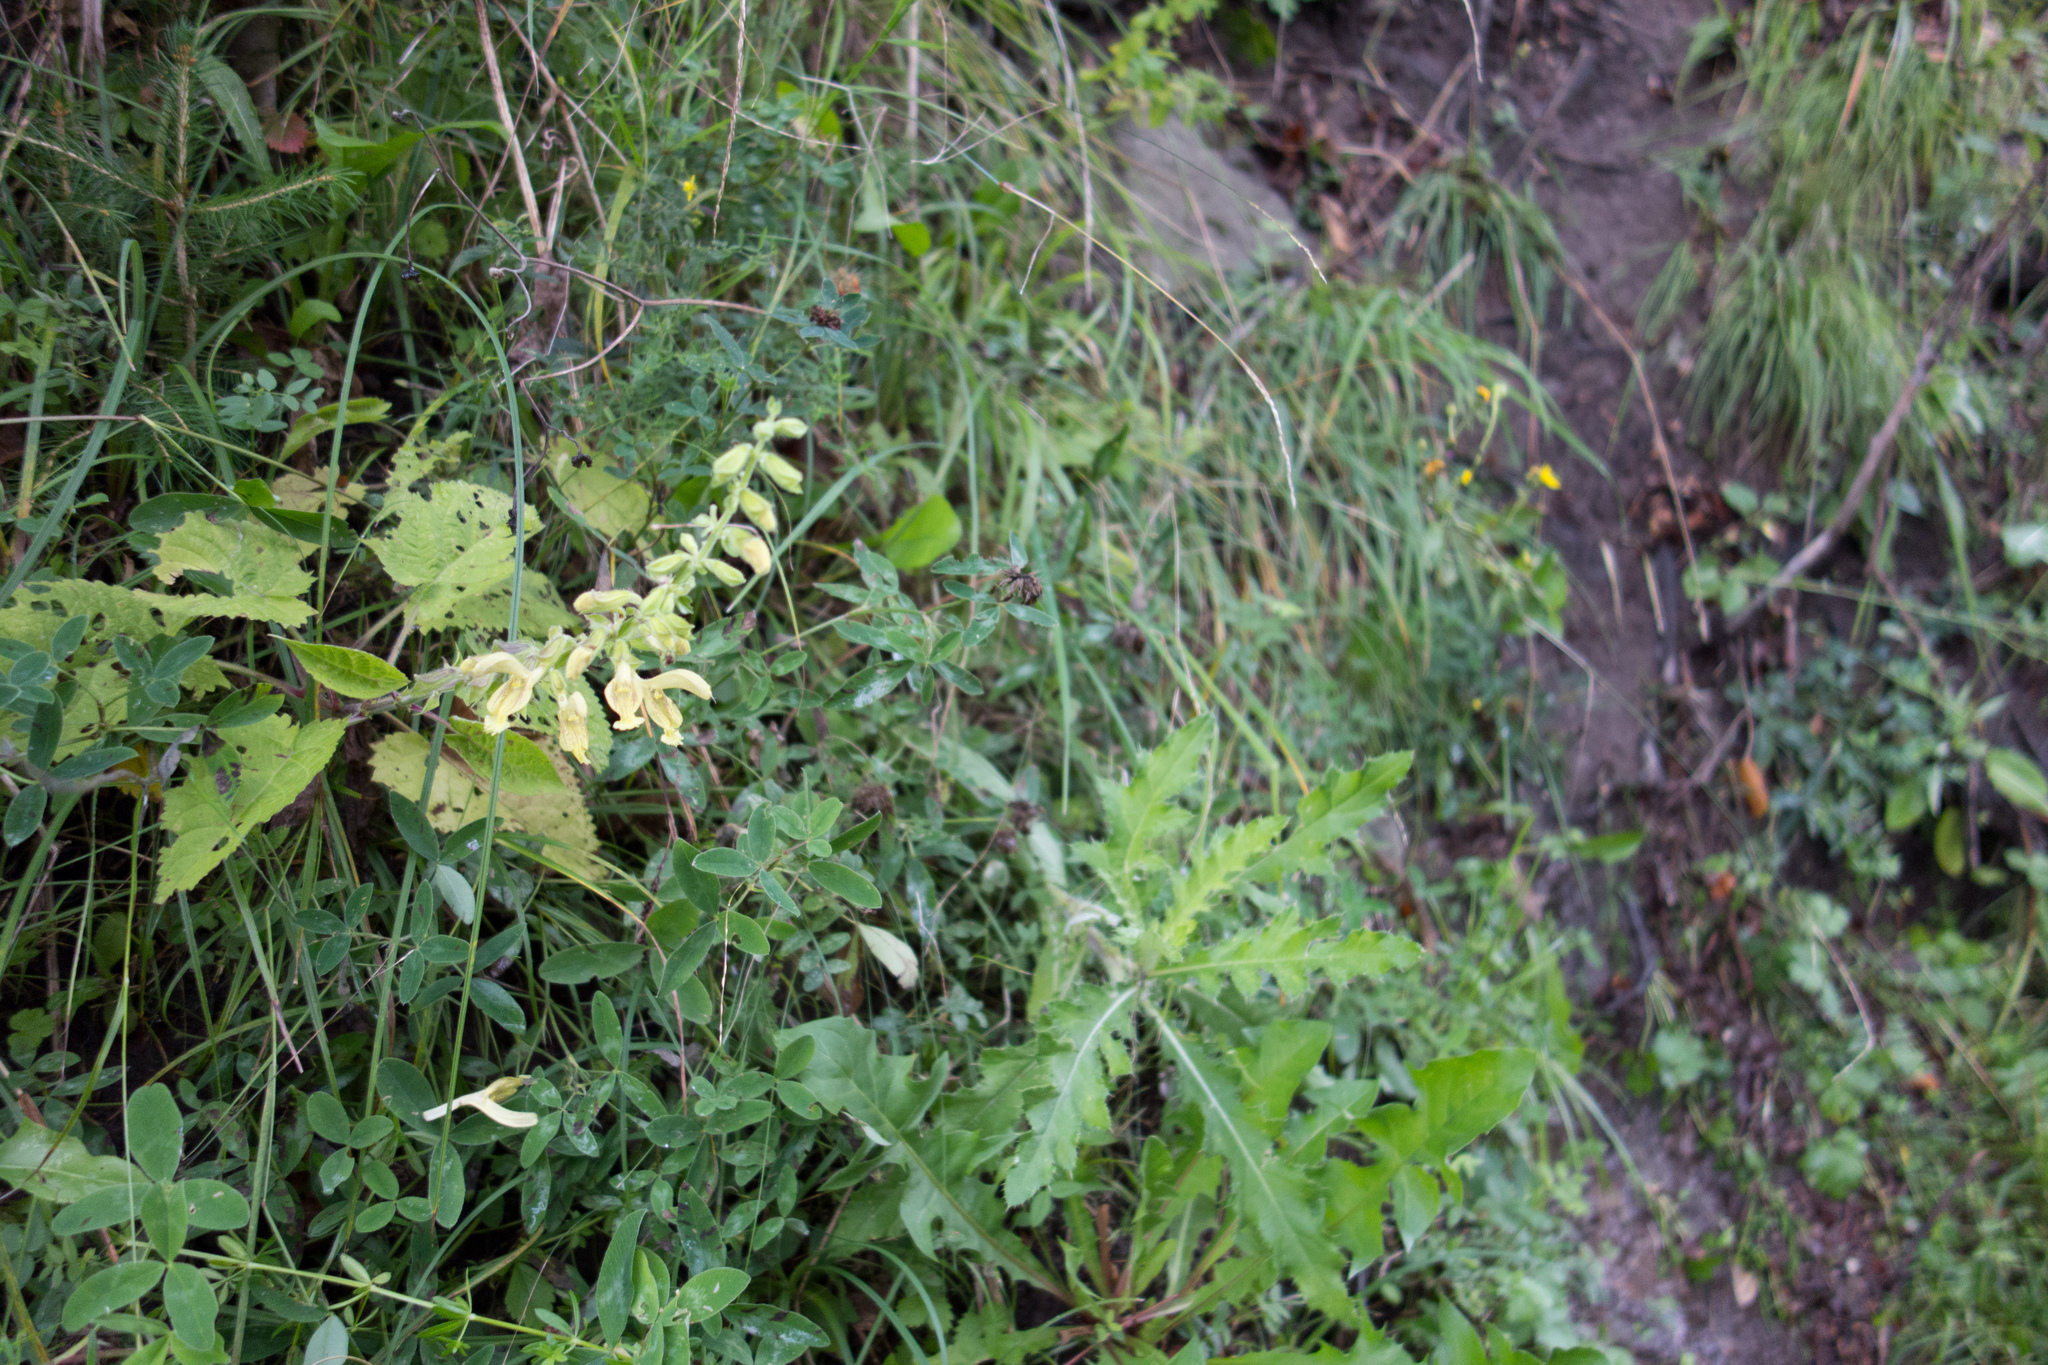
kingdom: Plantae
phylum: Tracheophyta
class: Magnoliopsida
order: Lamiales
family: Lamiaceae
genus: Salvia
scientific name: Salvia glutinosa
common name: Sticky clary
